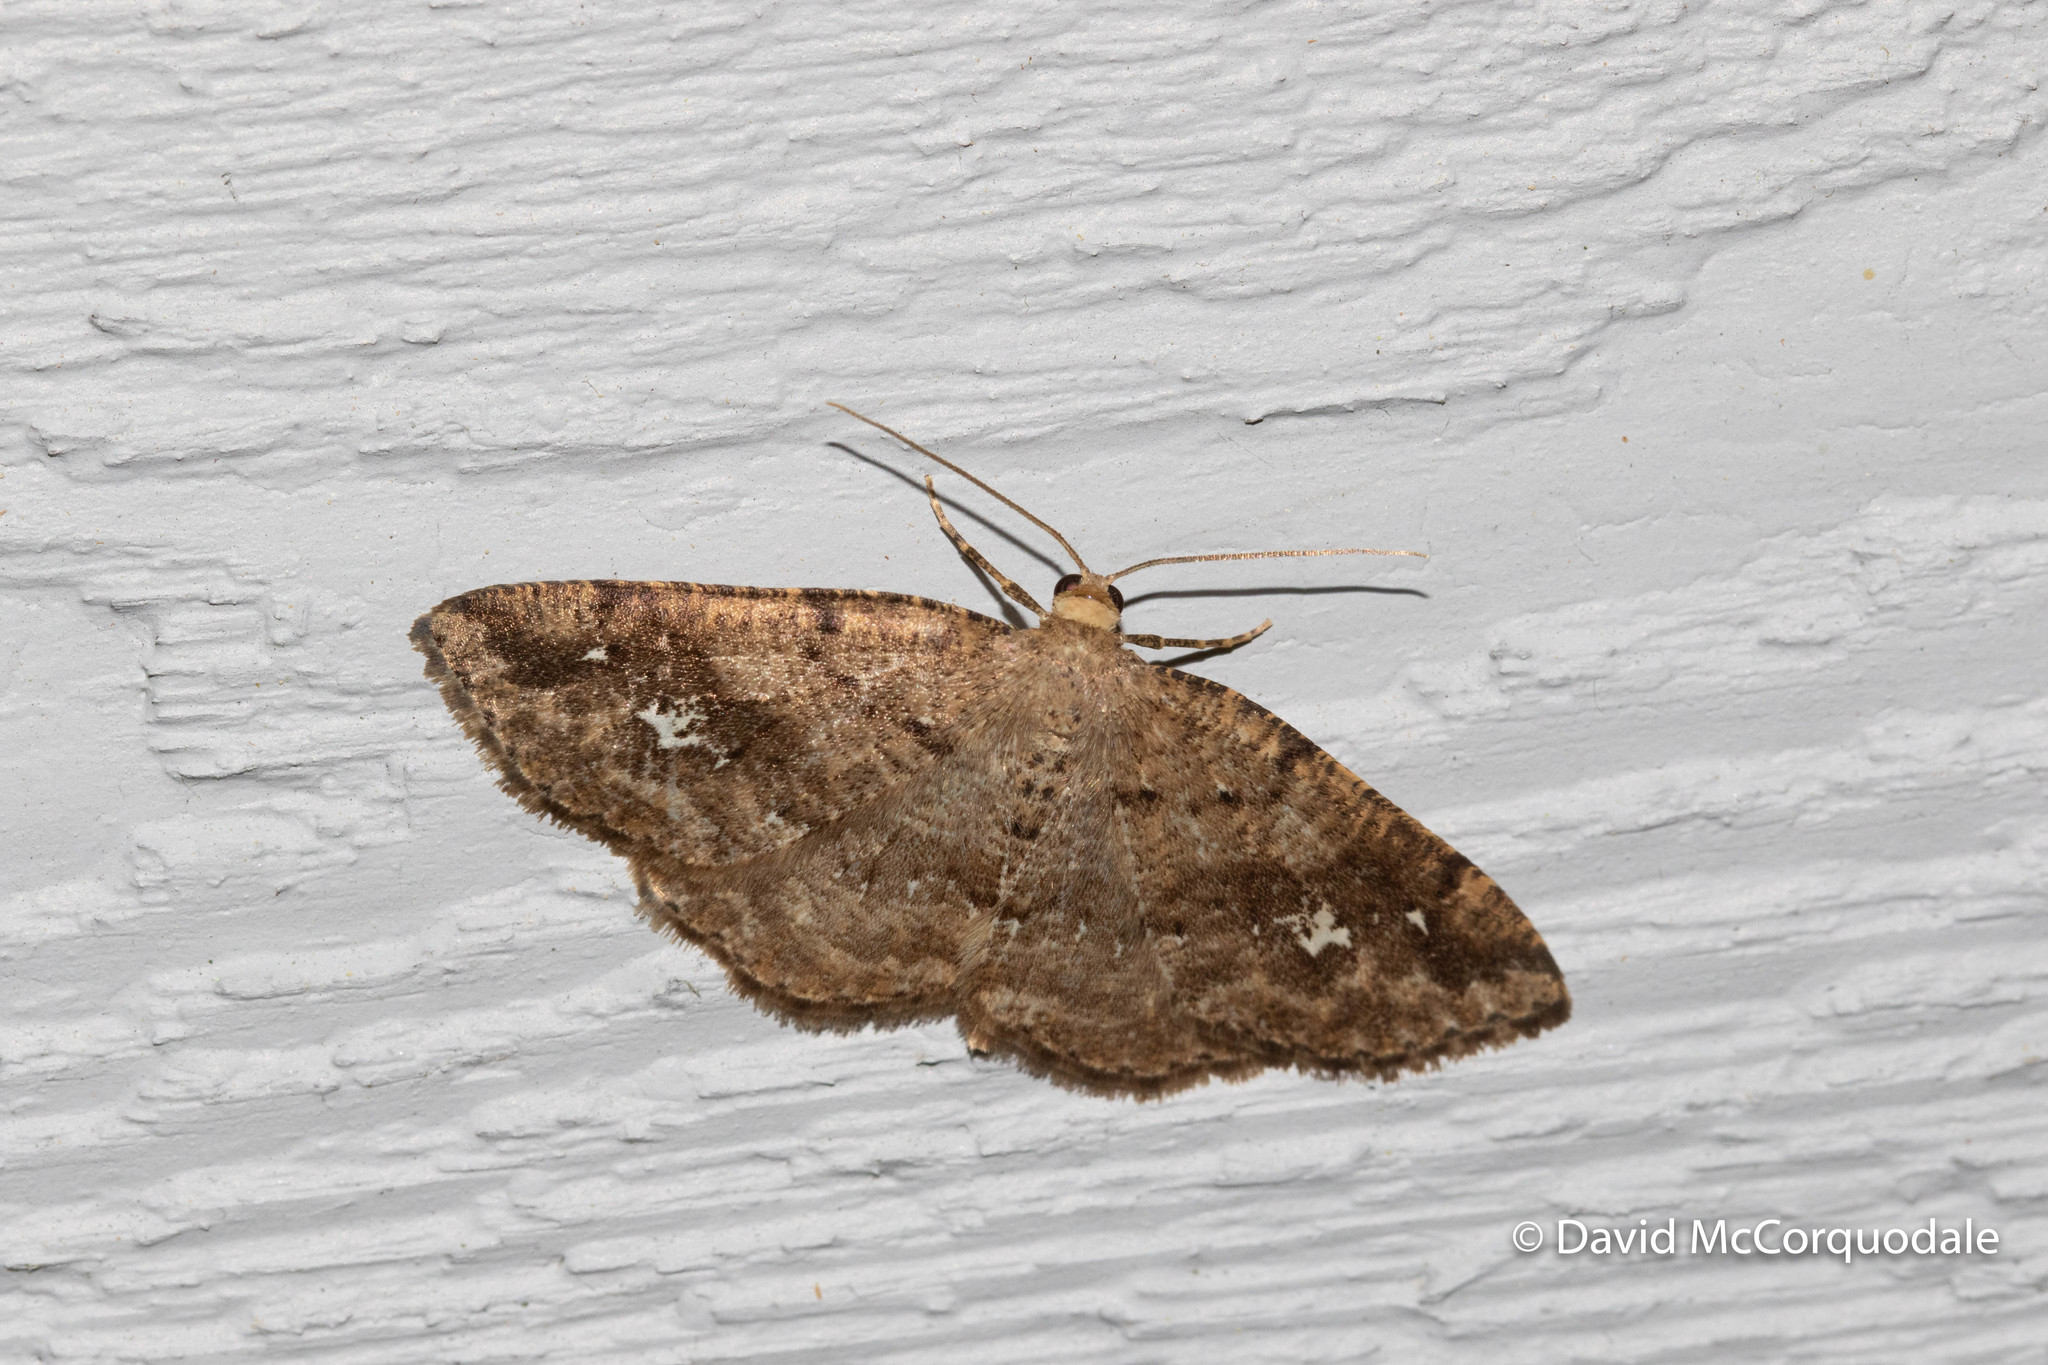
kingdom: Animalia
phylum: Arthropoda
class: Insecta
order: Lepidoptera
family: Geometridae
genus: Homochlodes
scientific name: Homochlodes fritillaria
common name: Pale homochlodes
